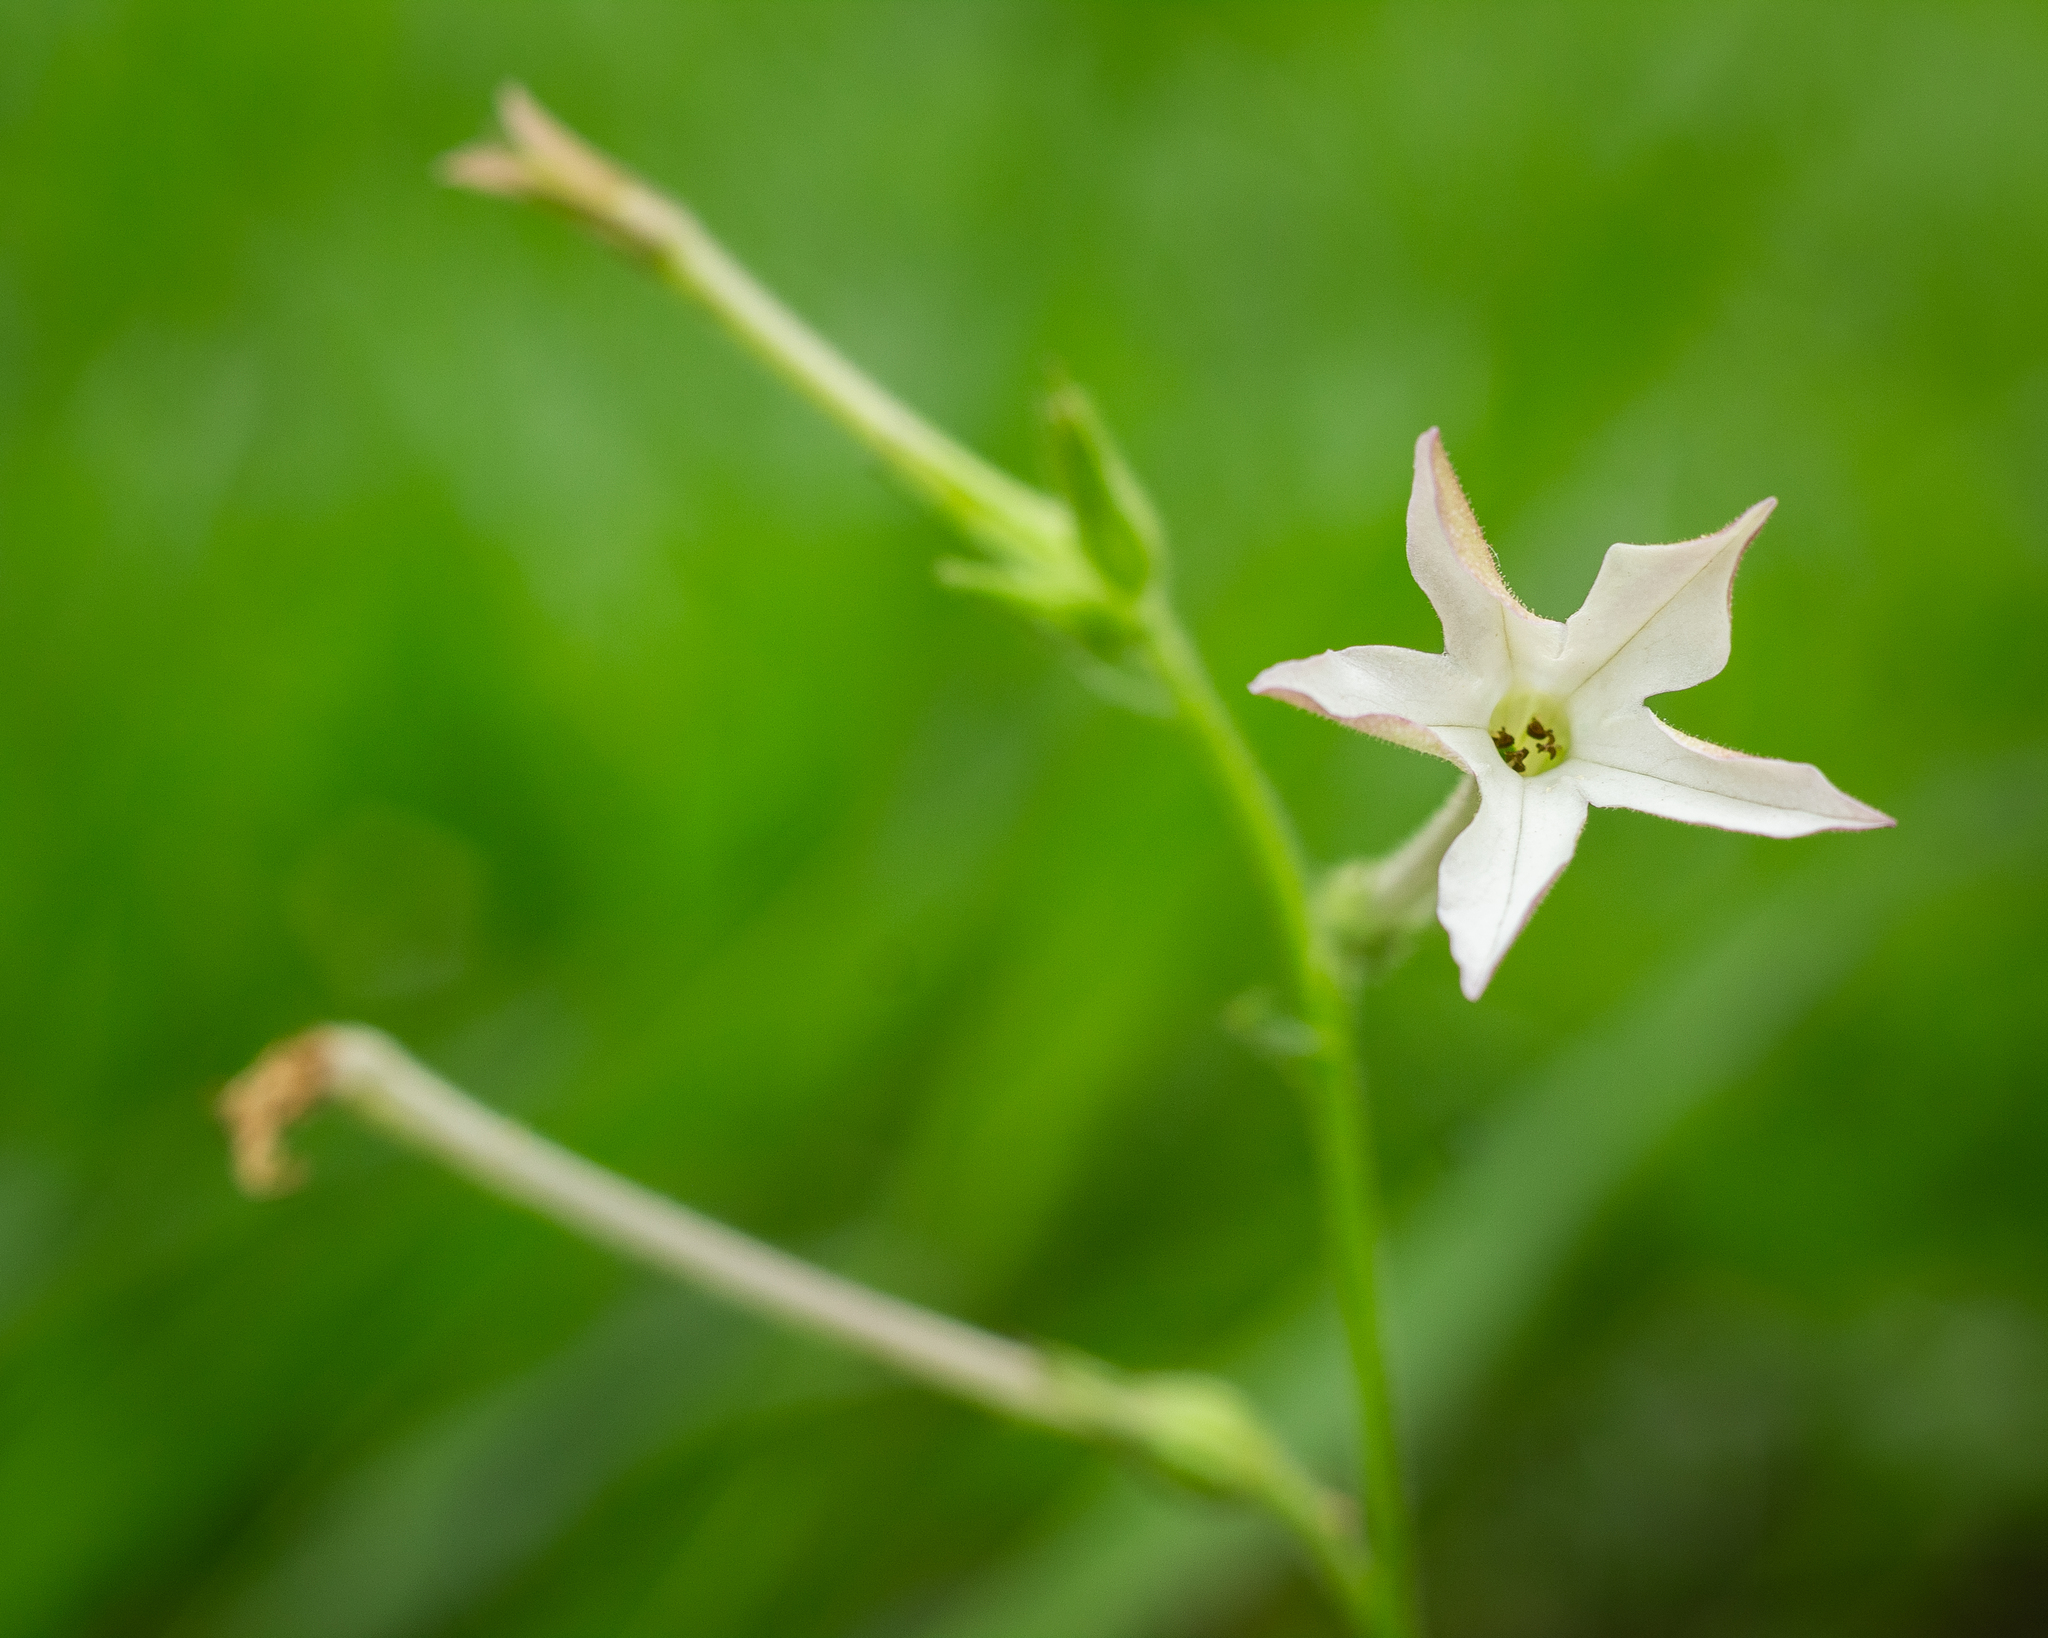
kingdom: Plantae
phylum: Tracheophyta
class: Magnoliopsida
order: Solanales
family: Solanaceae
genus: Nicotiana
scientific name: Nicotiana longiflora
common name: Long-flowered tobacco
